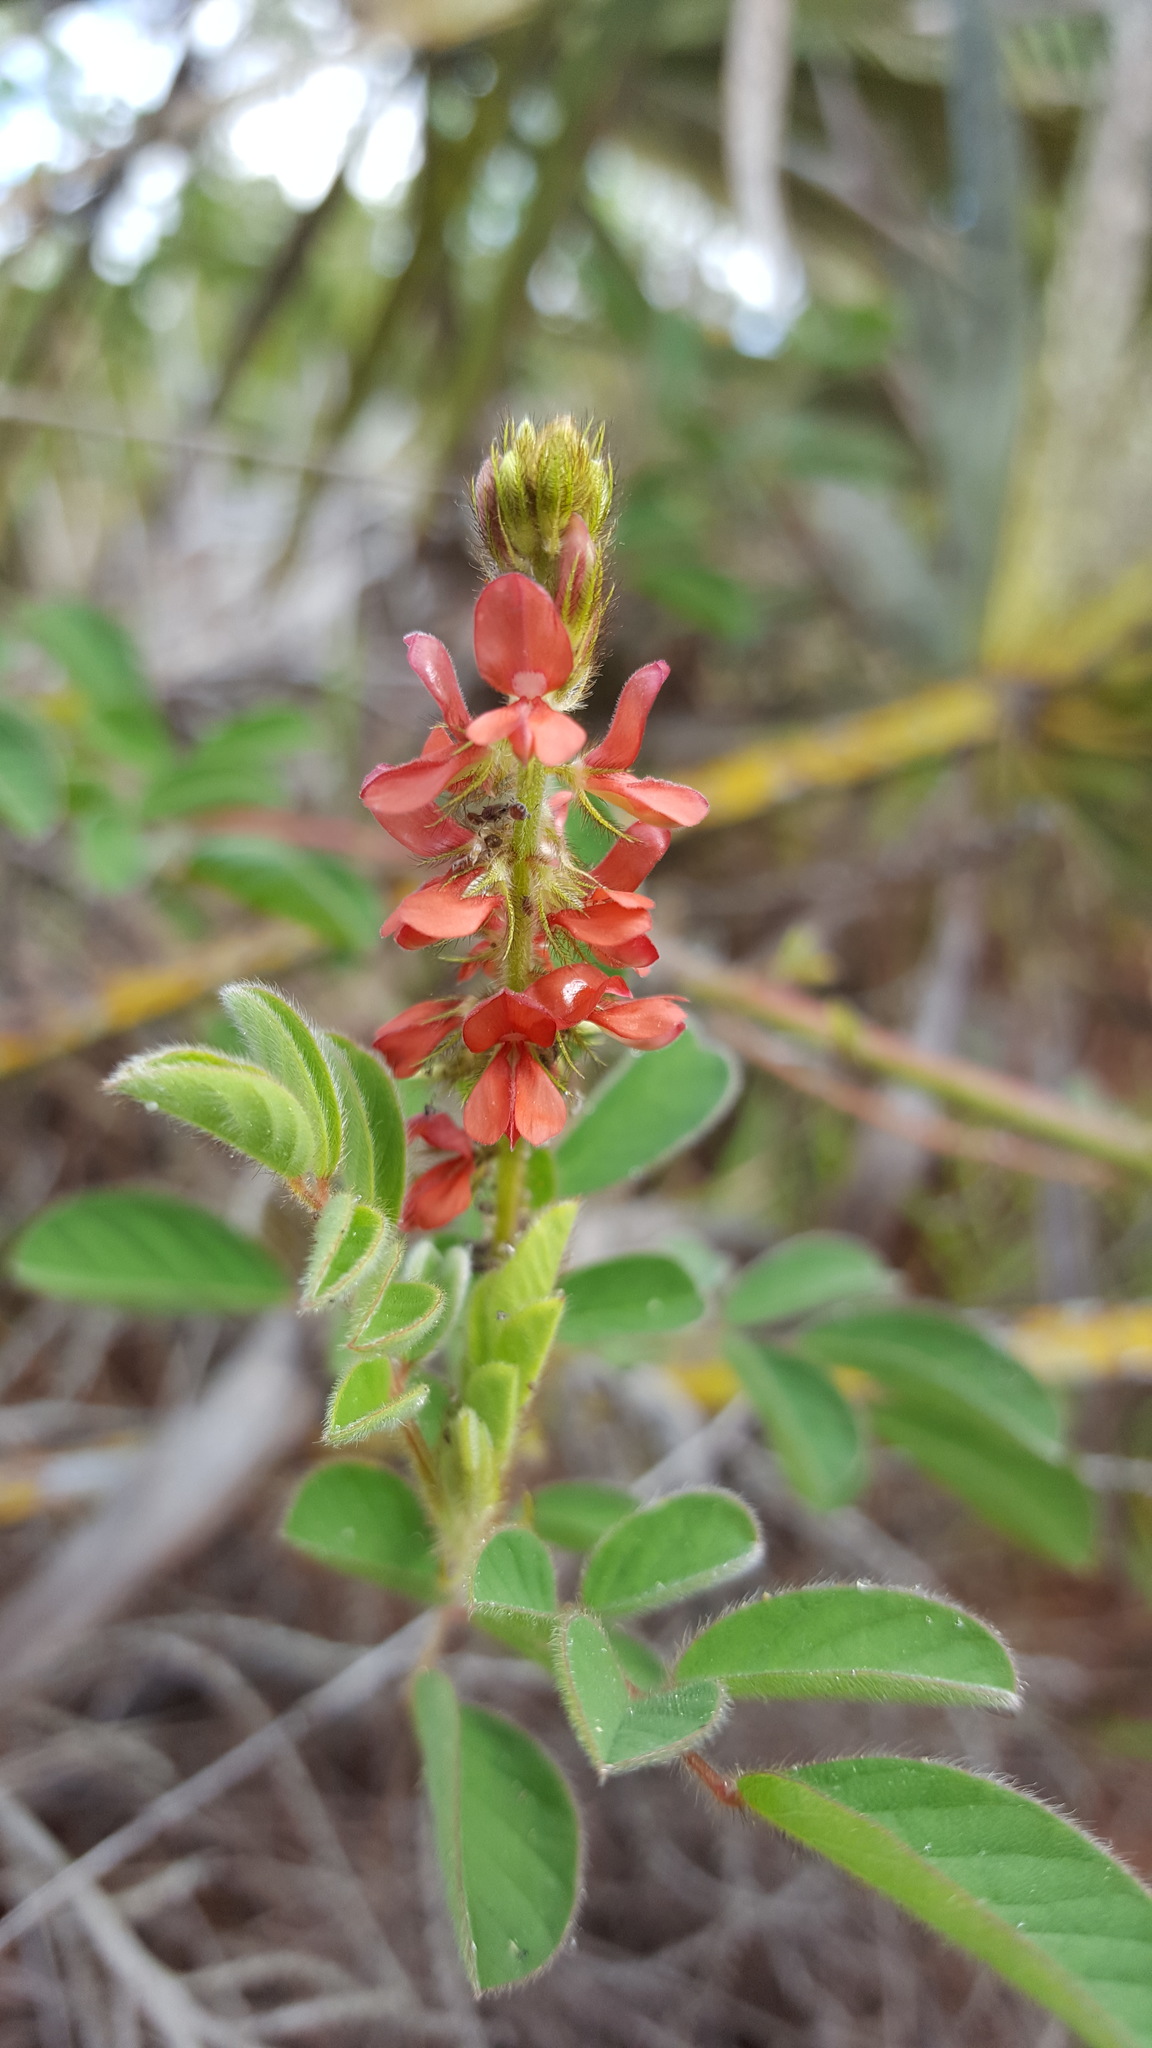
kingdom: Plantae
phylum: Tracheophyta
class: Magnoliopsida
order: Fabales
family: Fabaceae
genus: Indigofera
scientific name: Indigofera hirsuta
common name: Hairy indigo
